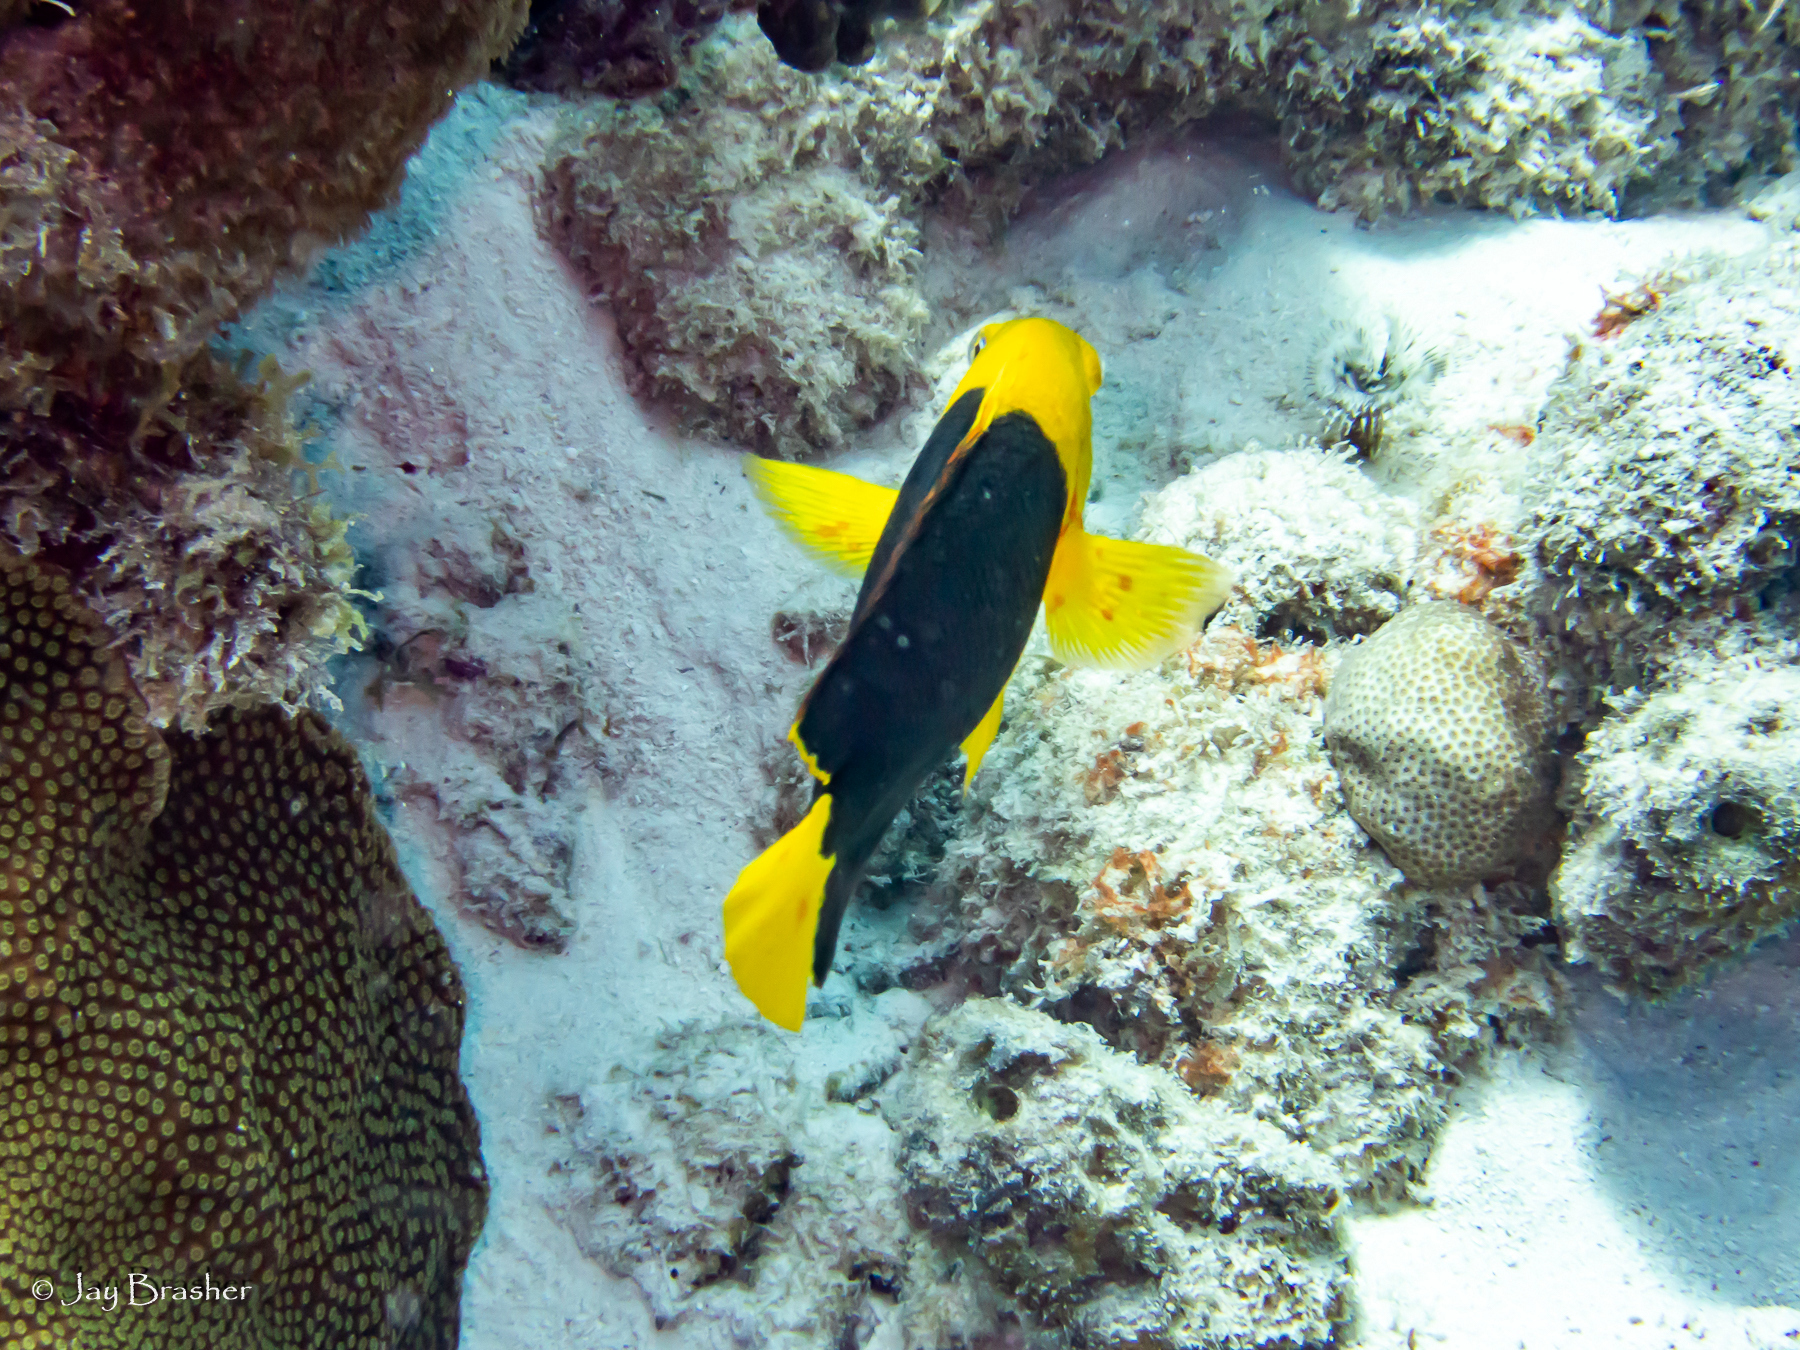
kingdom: Animalia
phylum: Chordata
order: Perciformes
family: Pomacanthidae
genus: Holacanthus
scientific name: Holacanthus tricolor
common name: Rock beauty
